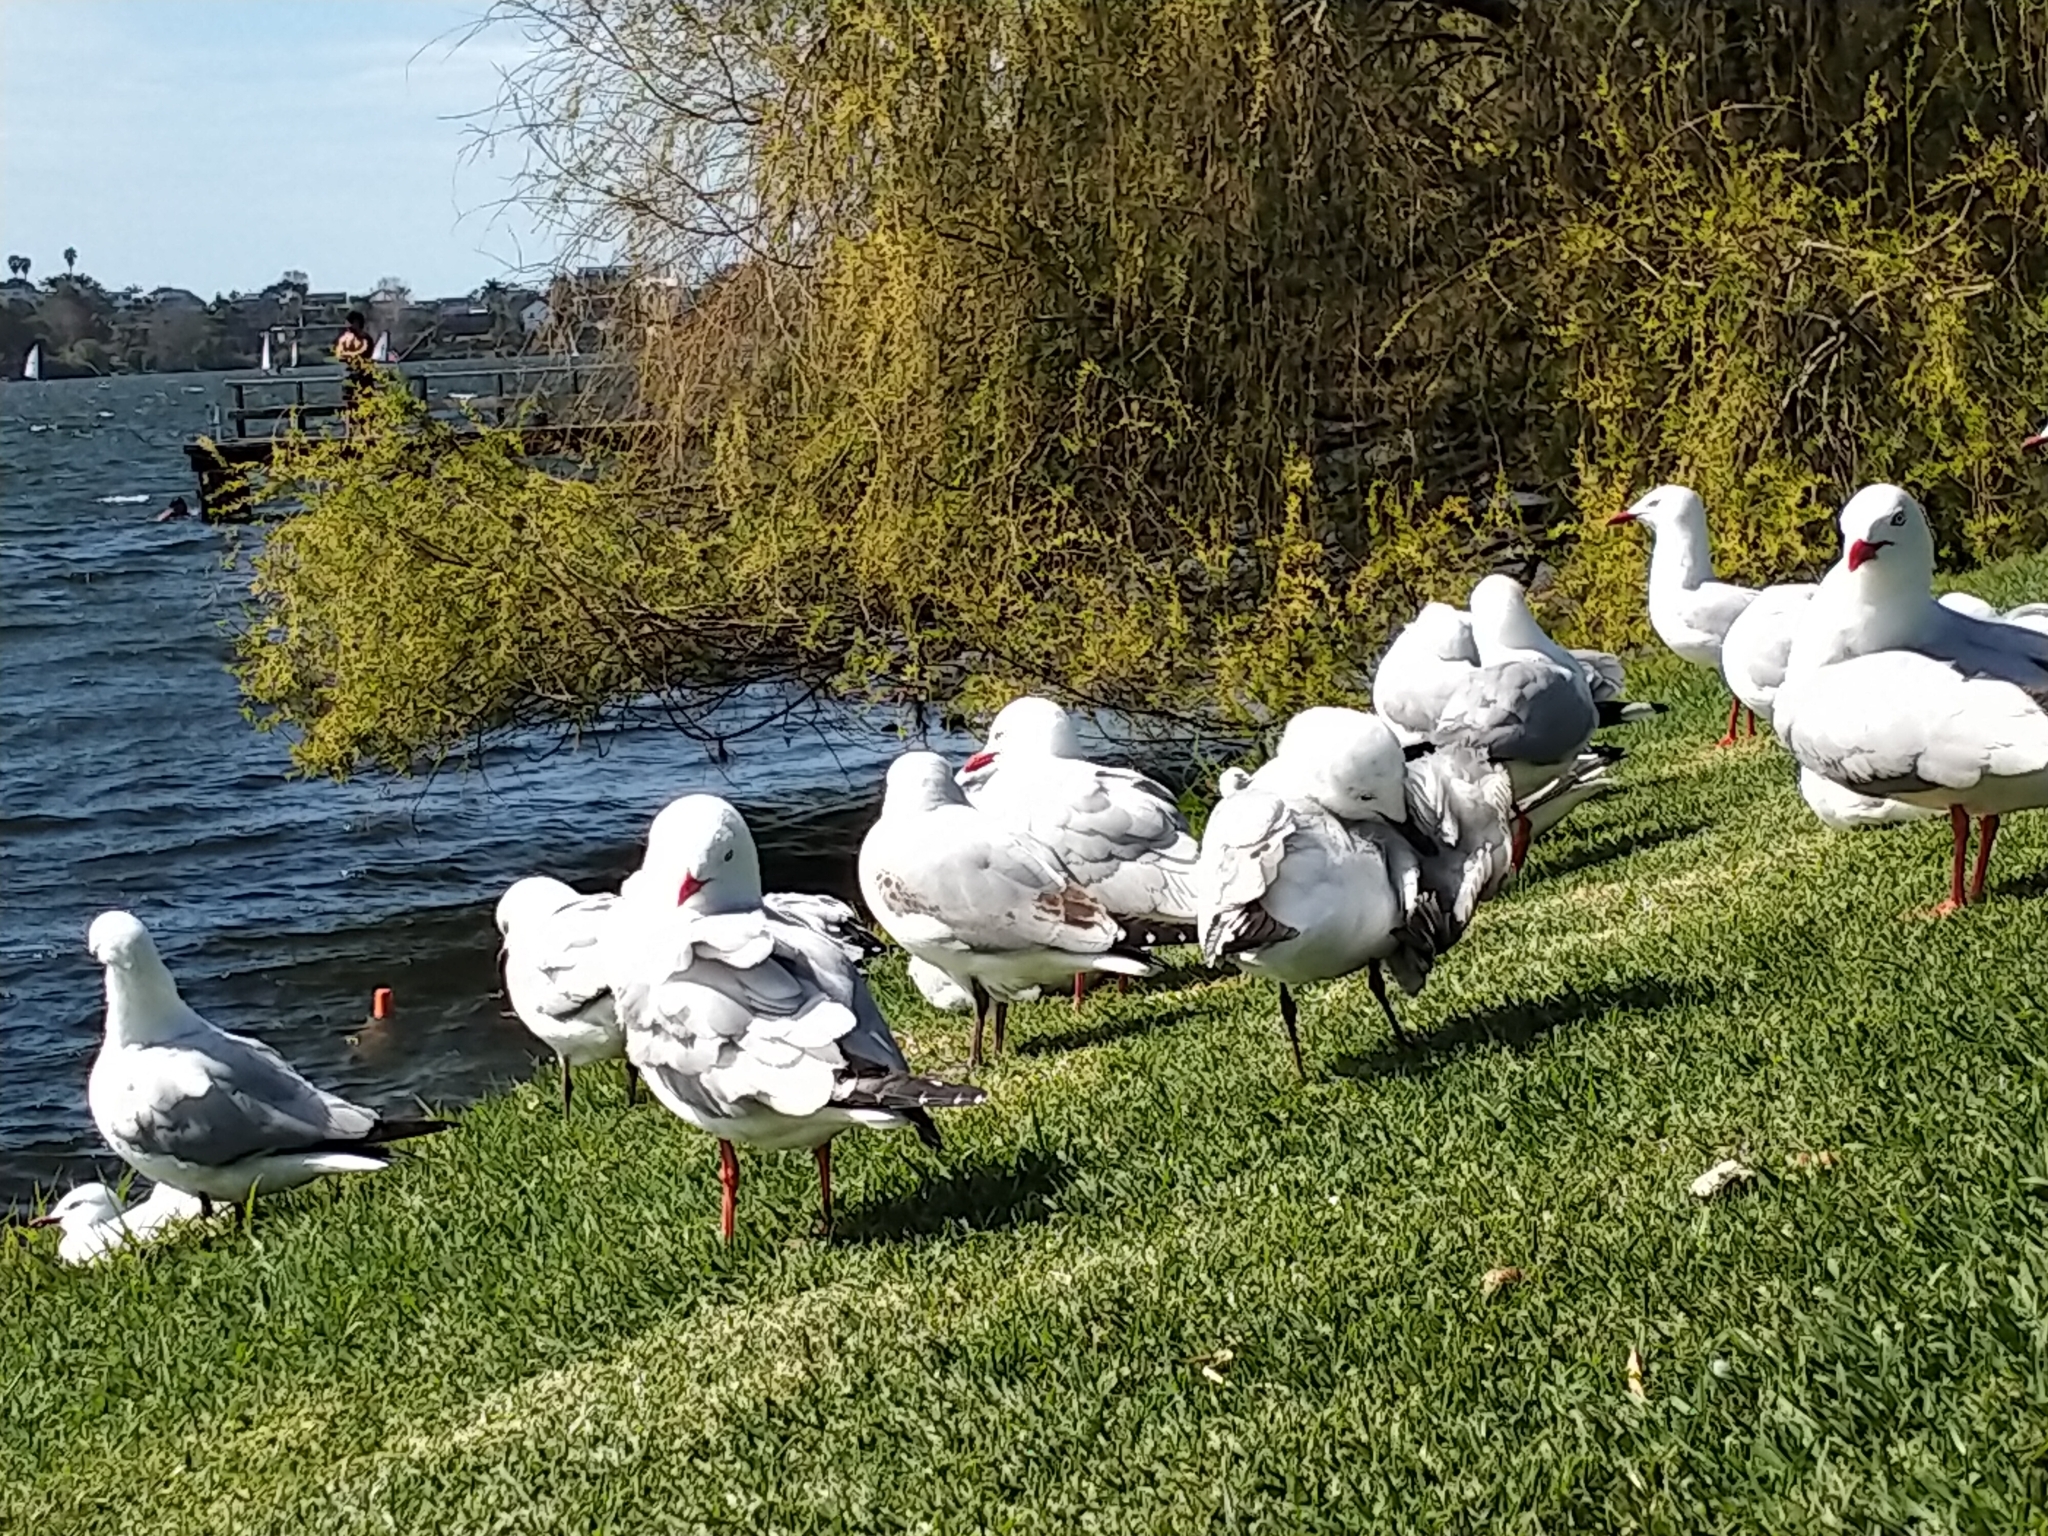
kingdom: Animalia
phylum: Chordata
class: Aves
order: Charadriiformes
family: Laridae
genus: Chroicocephalus
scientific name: Chroicocephalus novaehollandiae
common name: Silver gull
